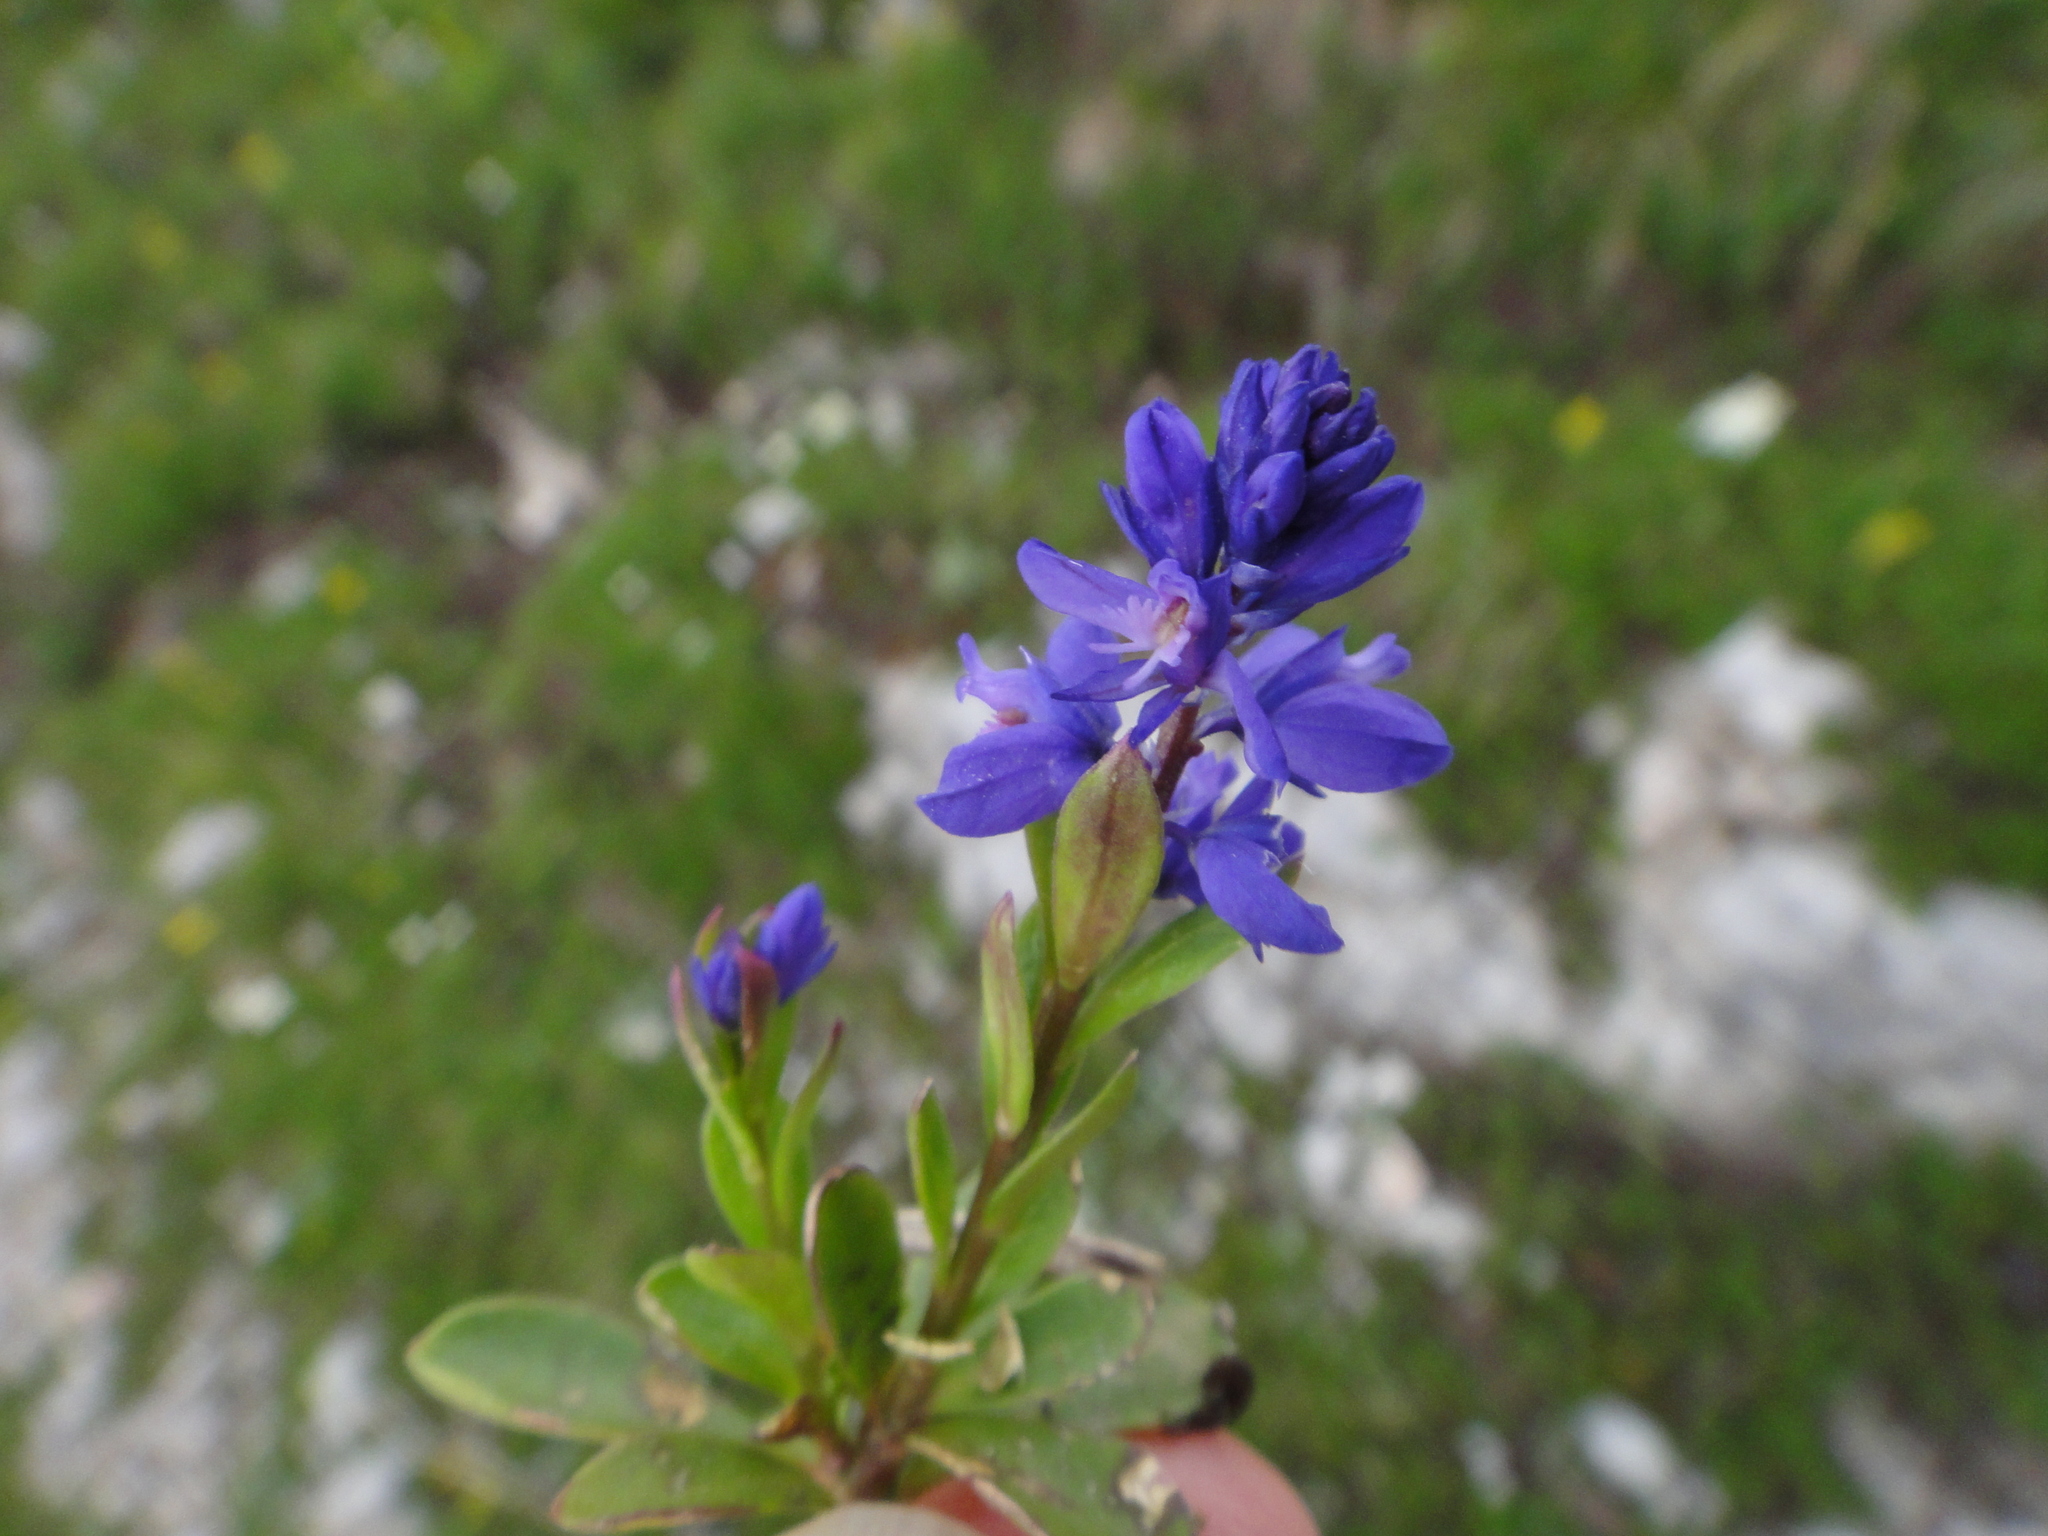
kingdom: Plantae
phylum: Tracheophyta
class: Magnoliopsida
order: Fabales
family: Polygalaceae
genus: Polygala
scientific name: Polygala amara
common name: Milkwort
